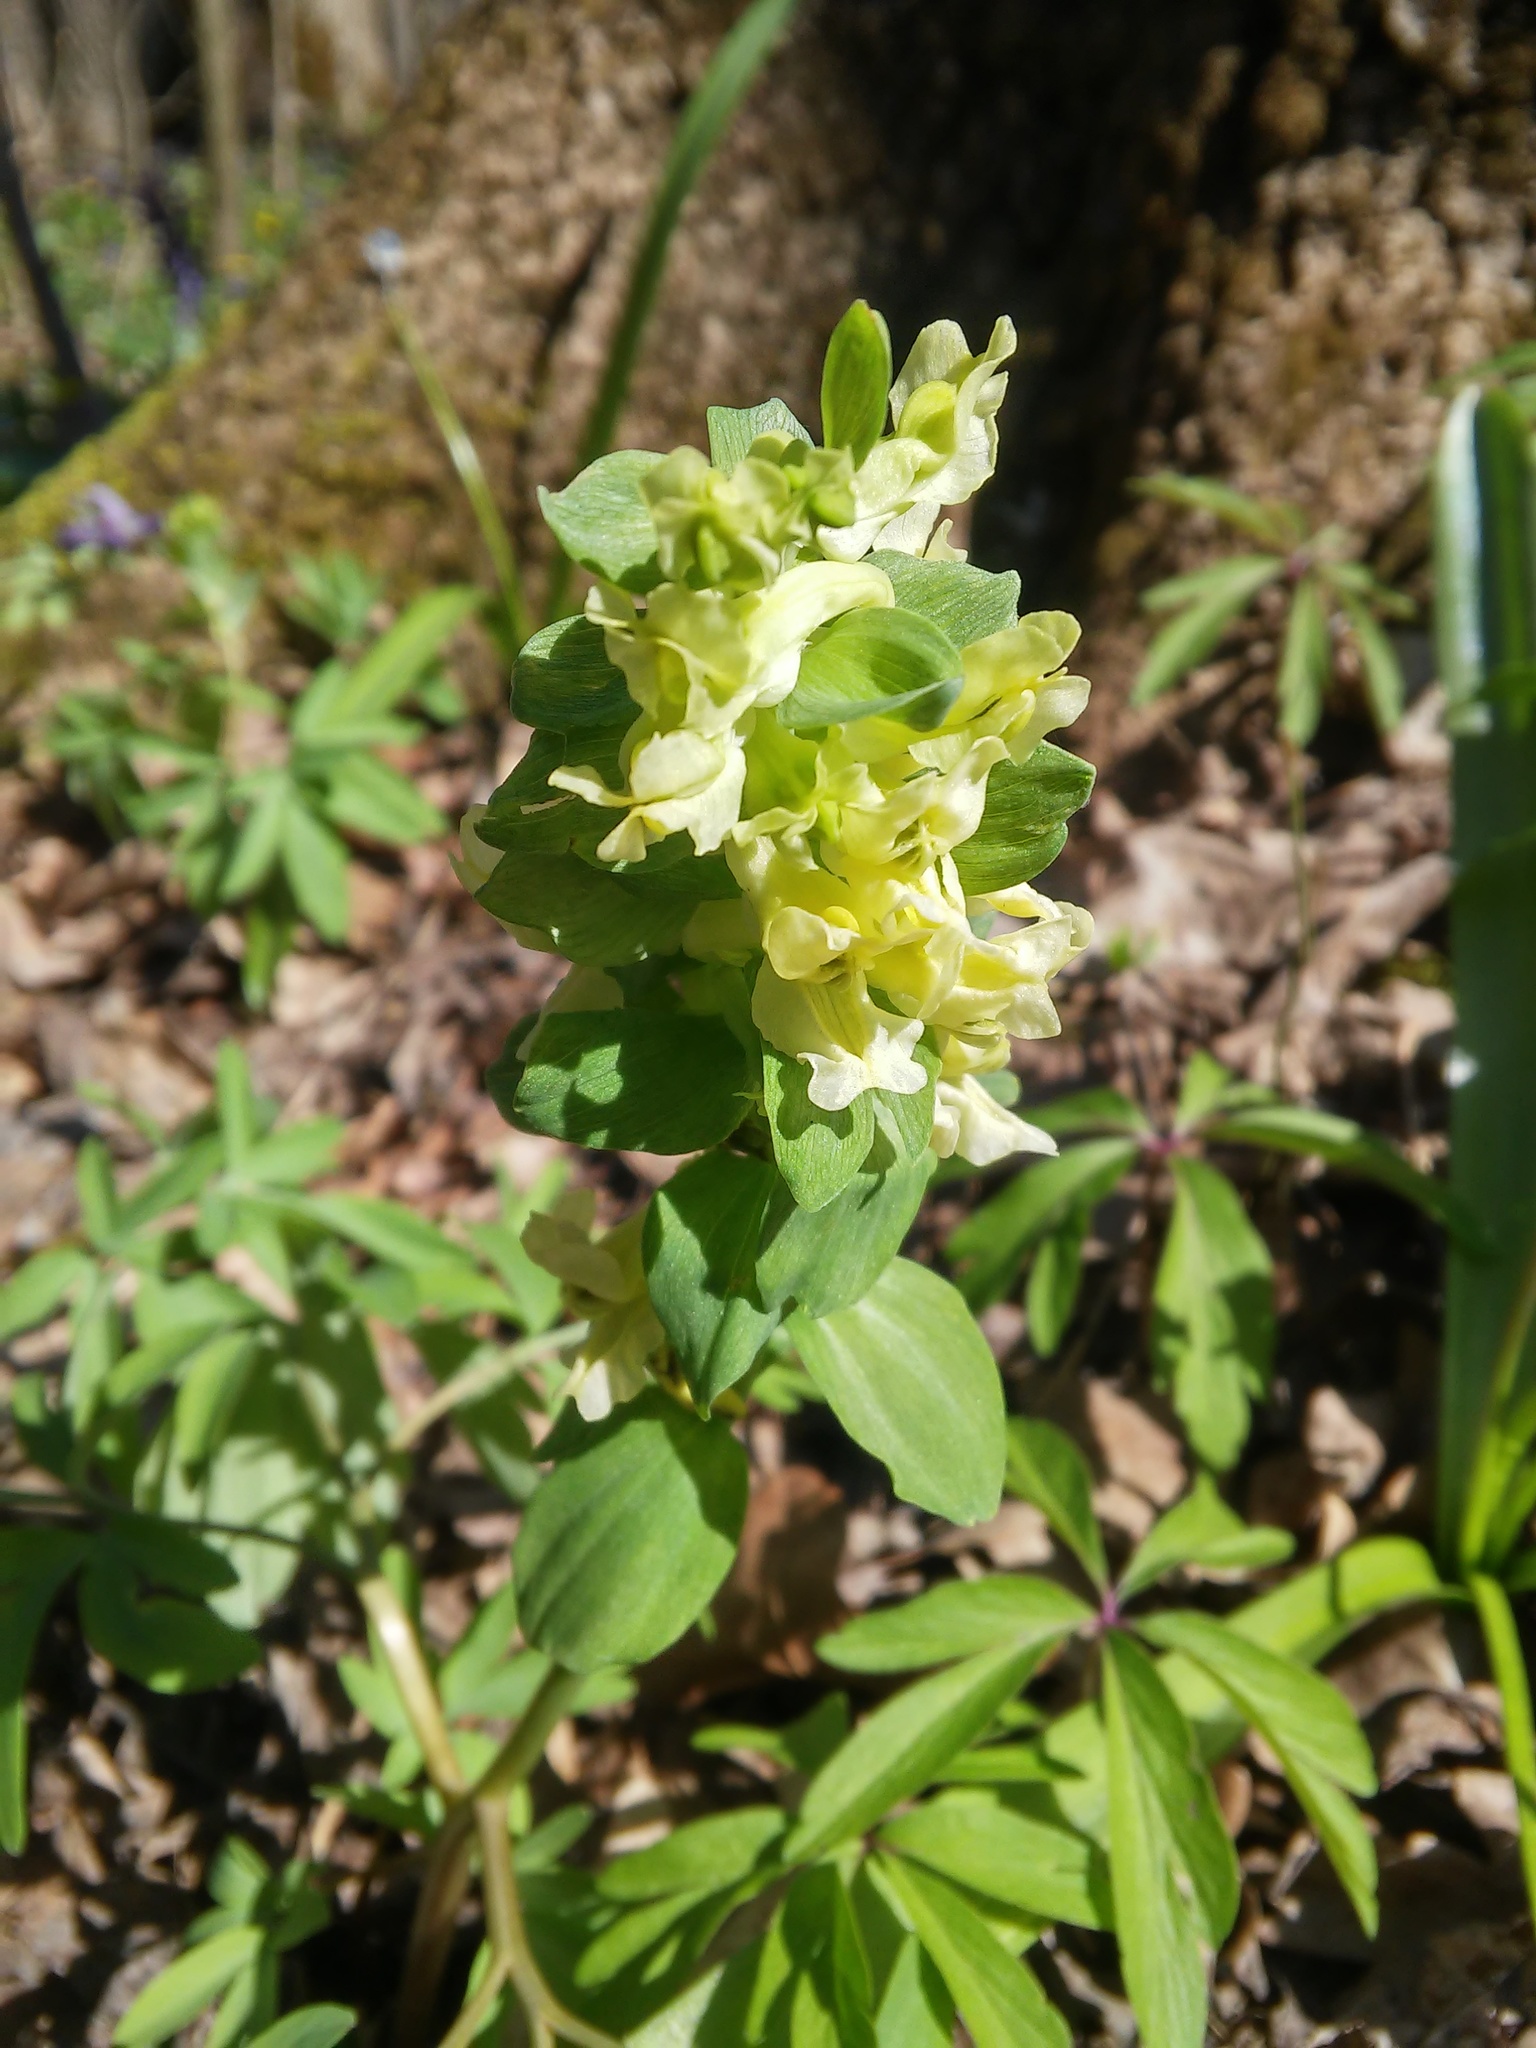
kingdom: Plantae
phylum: Tracheophyta
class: Magnoliopsida
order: Ranunculales
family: Papaveraceae
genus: Corydalis
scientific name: Corydalis cava
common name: Hollowroot
